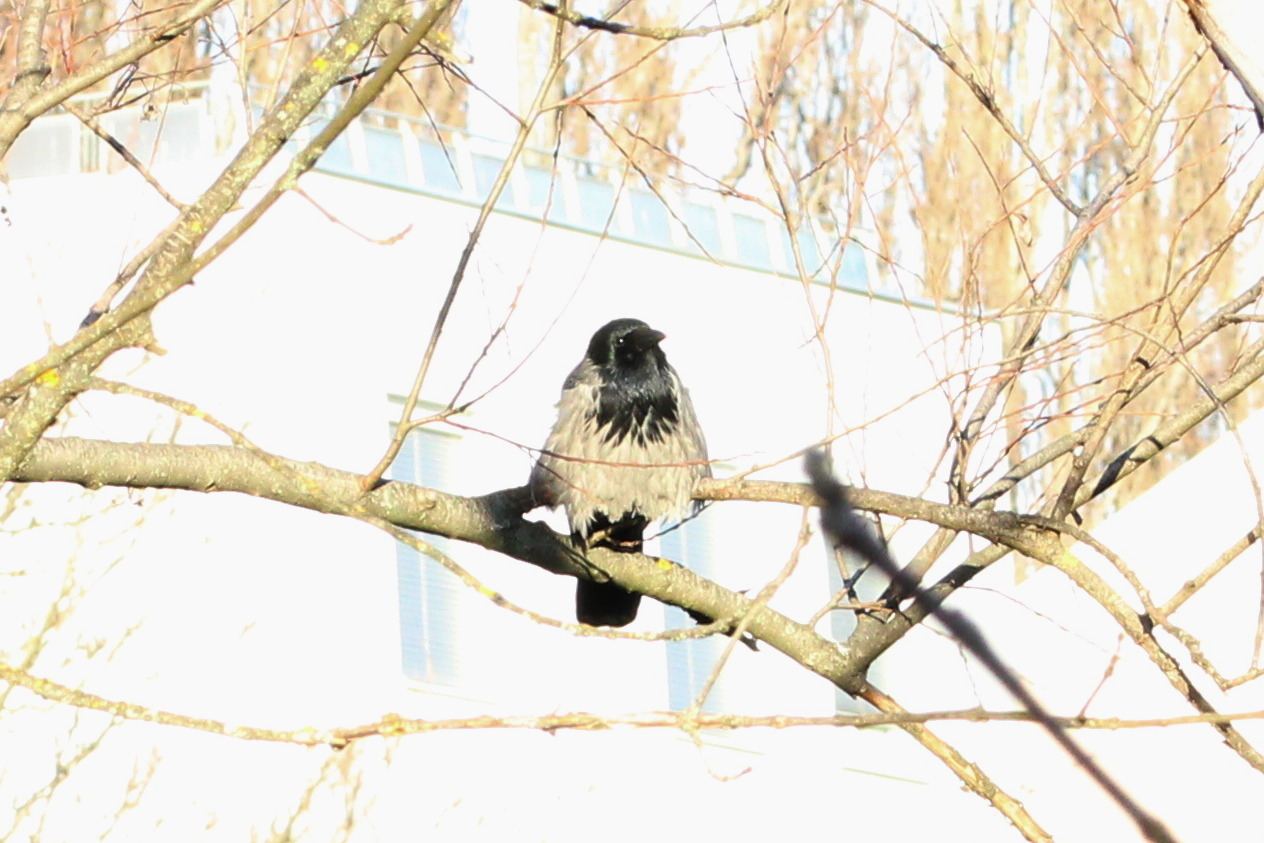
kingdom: Animalia
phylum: Chordata
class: Aves
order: Passeriformes
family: Corvidae
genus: Corvus
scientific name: Corvus cornix
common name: Hooded crow
